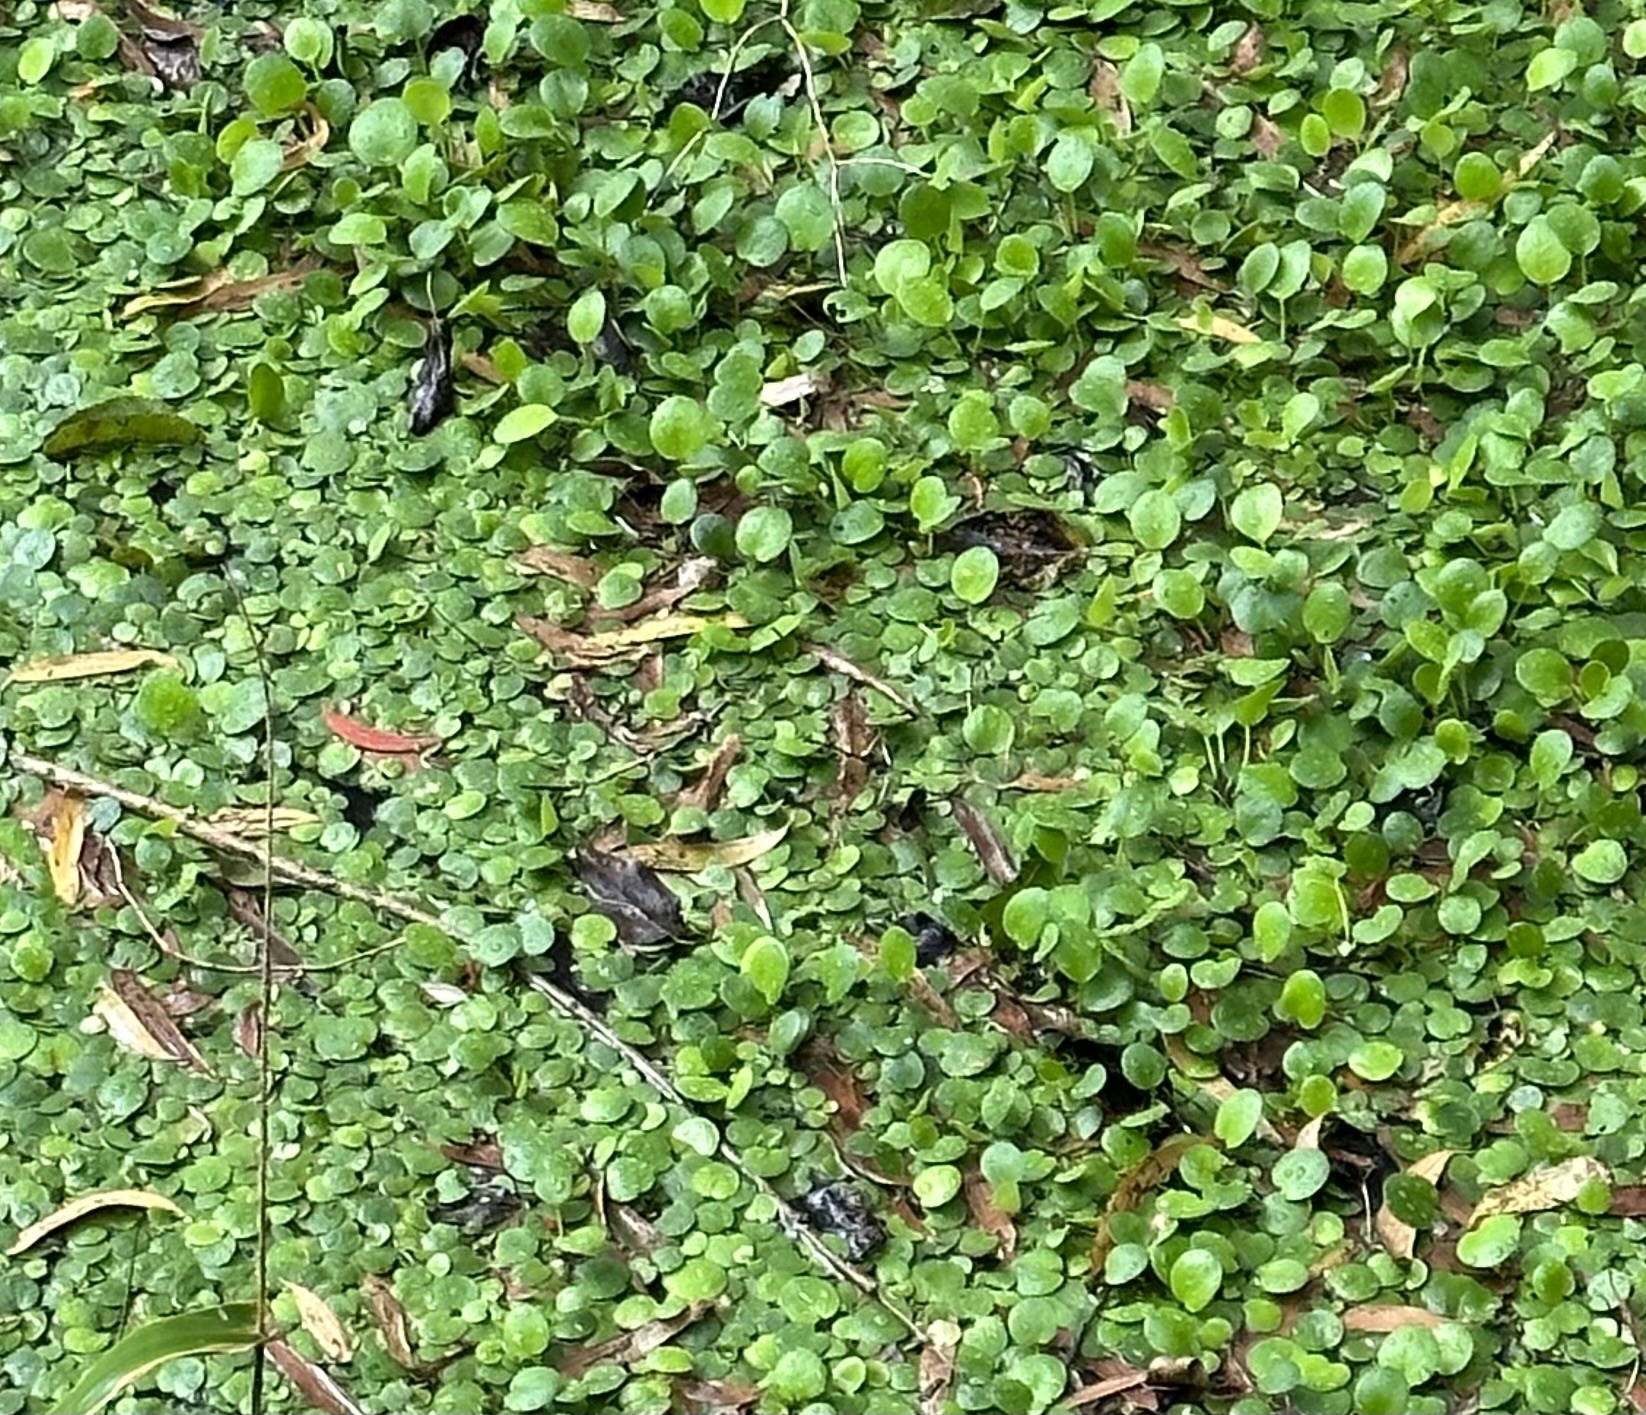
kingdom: Plantae
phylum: Tracheophyta
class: Liliopsida
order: Alismatales
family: Hydrocharitaceae
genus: Hydrocharis
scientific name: Hydrocharis laevigata
